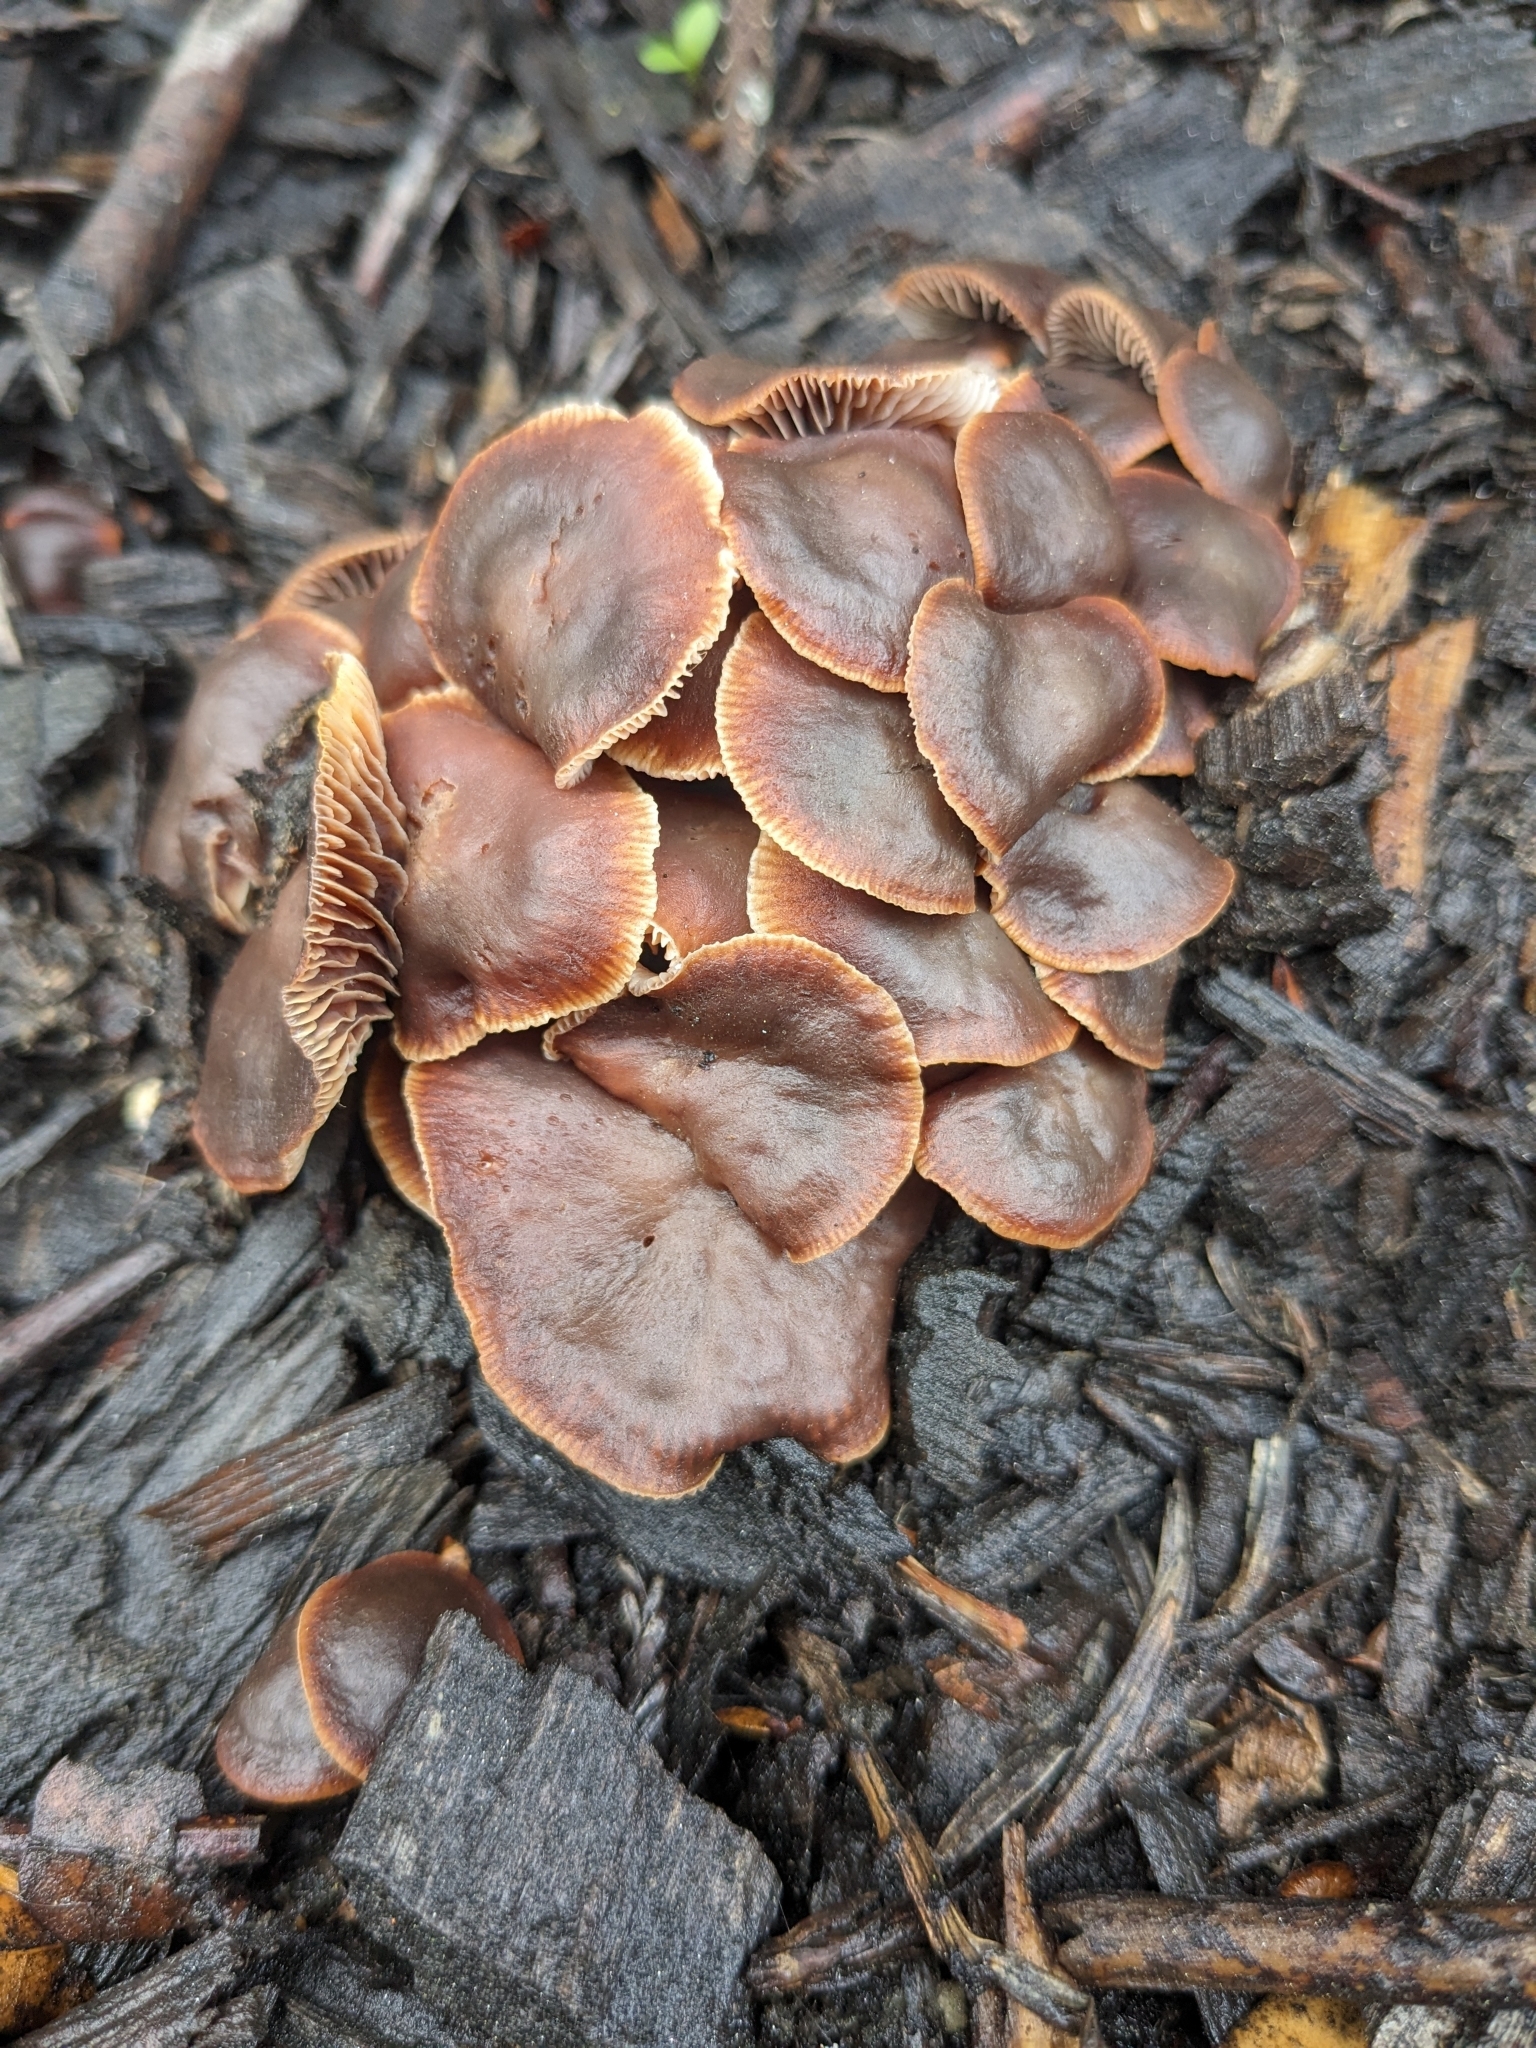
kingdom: Fungi
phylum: Basidiomycota
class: Agaricomycetes
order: Agaricales
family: Omphalotaceae
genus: Gymnopus
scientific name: Gymnopus brassicolens
